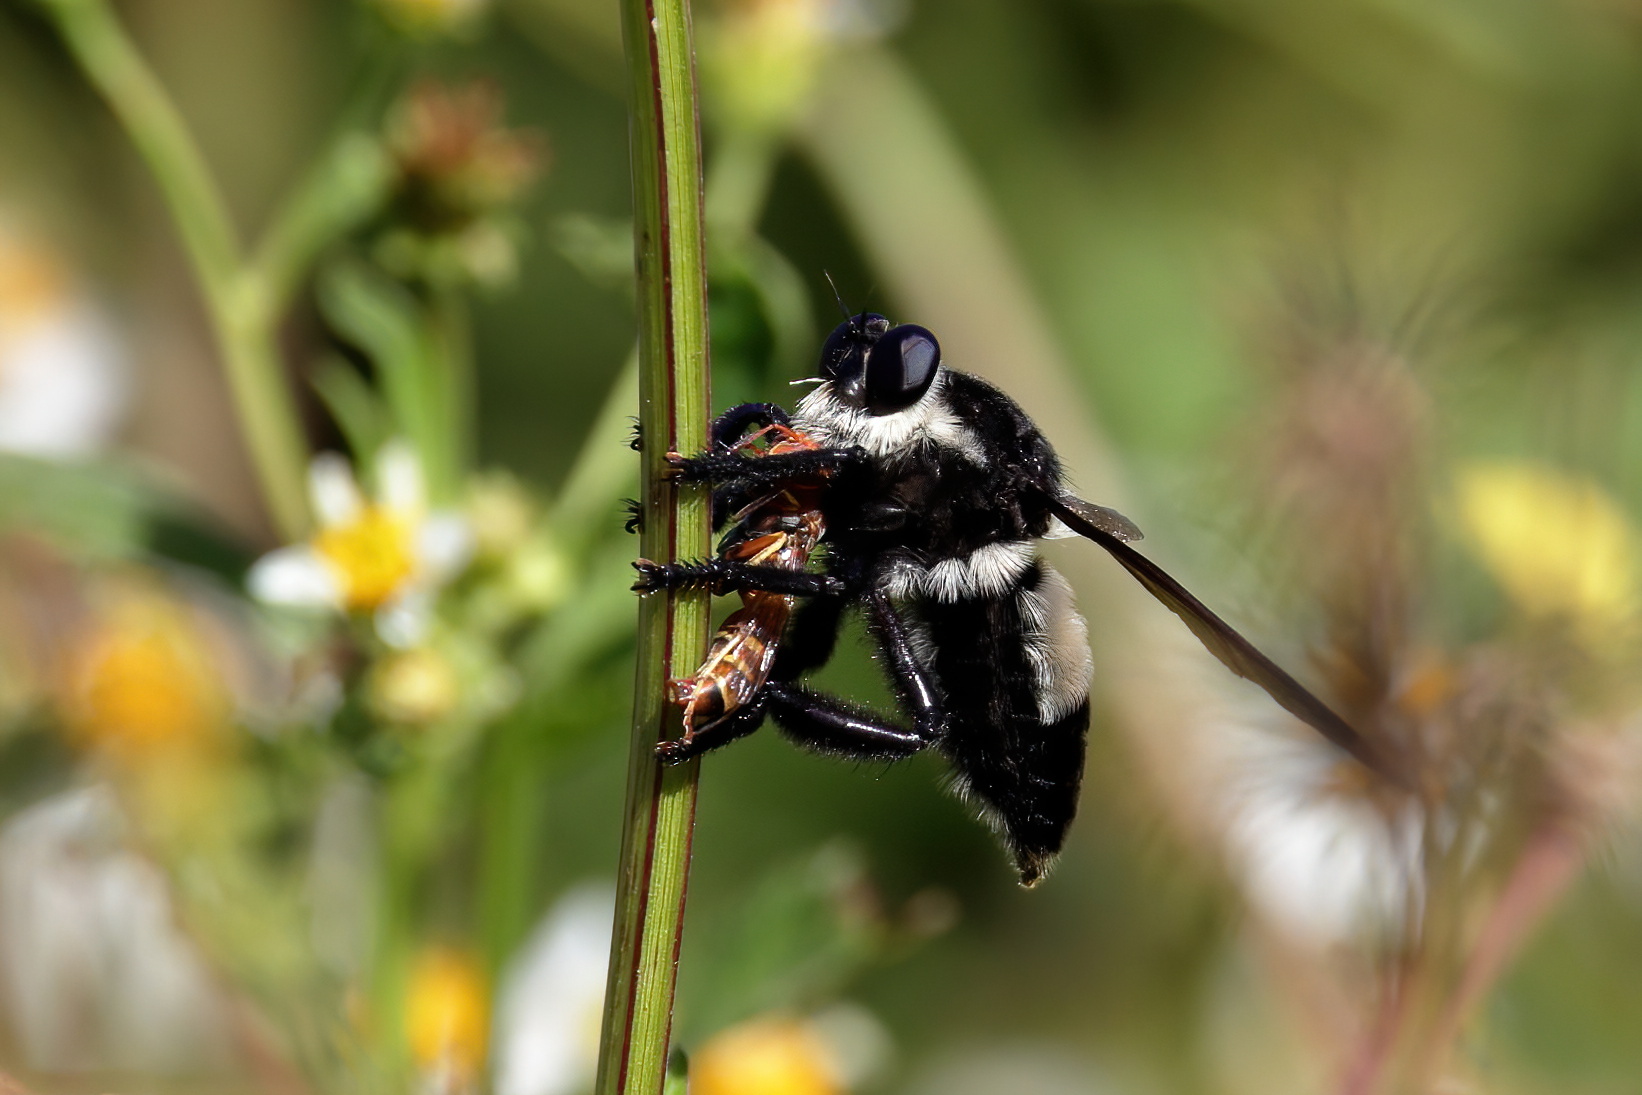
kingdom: Animalia
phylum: Arthropoda
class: Insecta
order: Diptera
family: Asilidae
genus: Mallophora
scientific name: Mallophora bomboides
